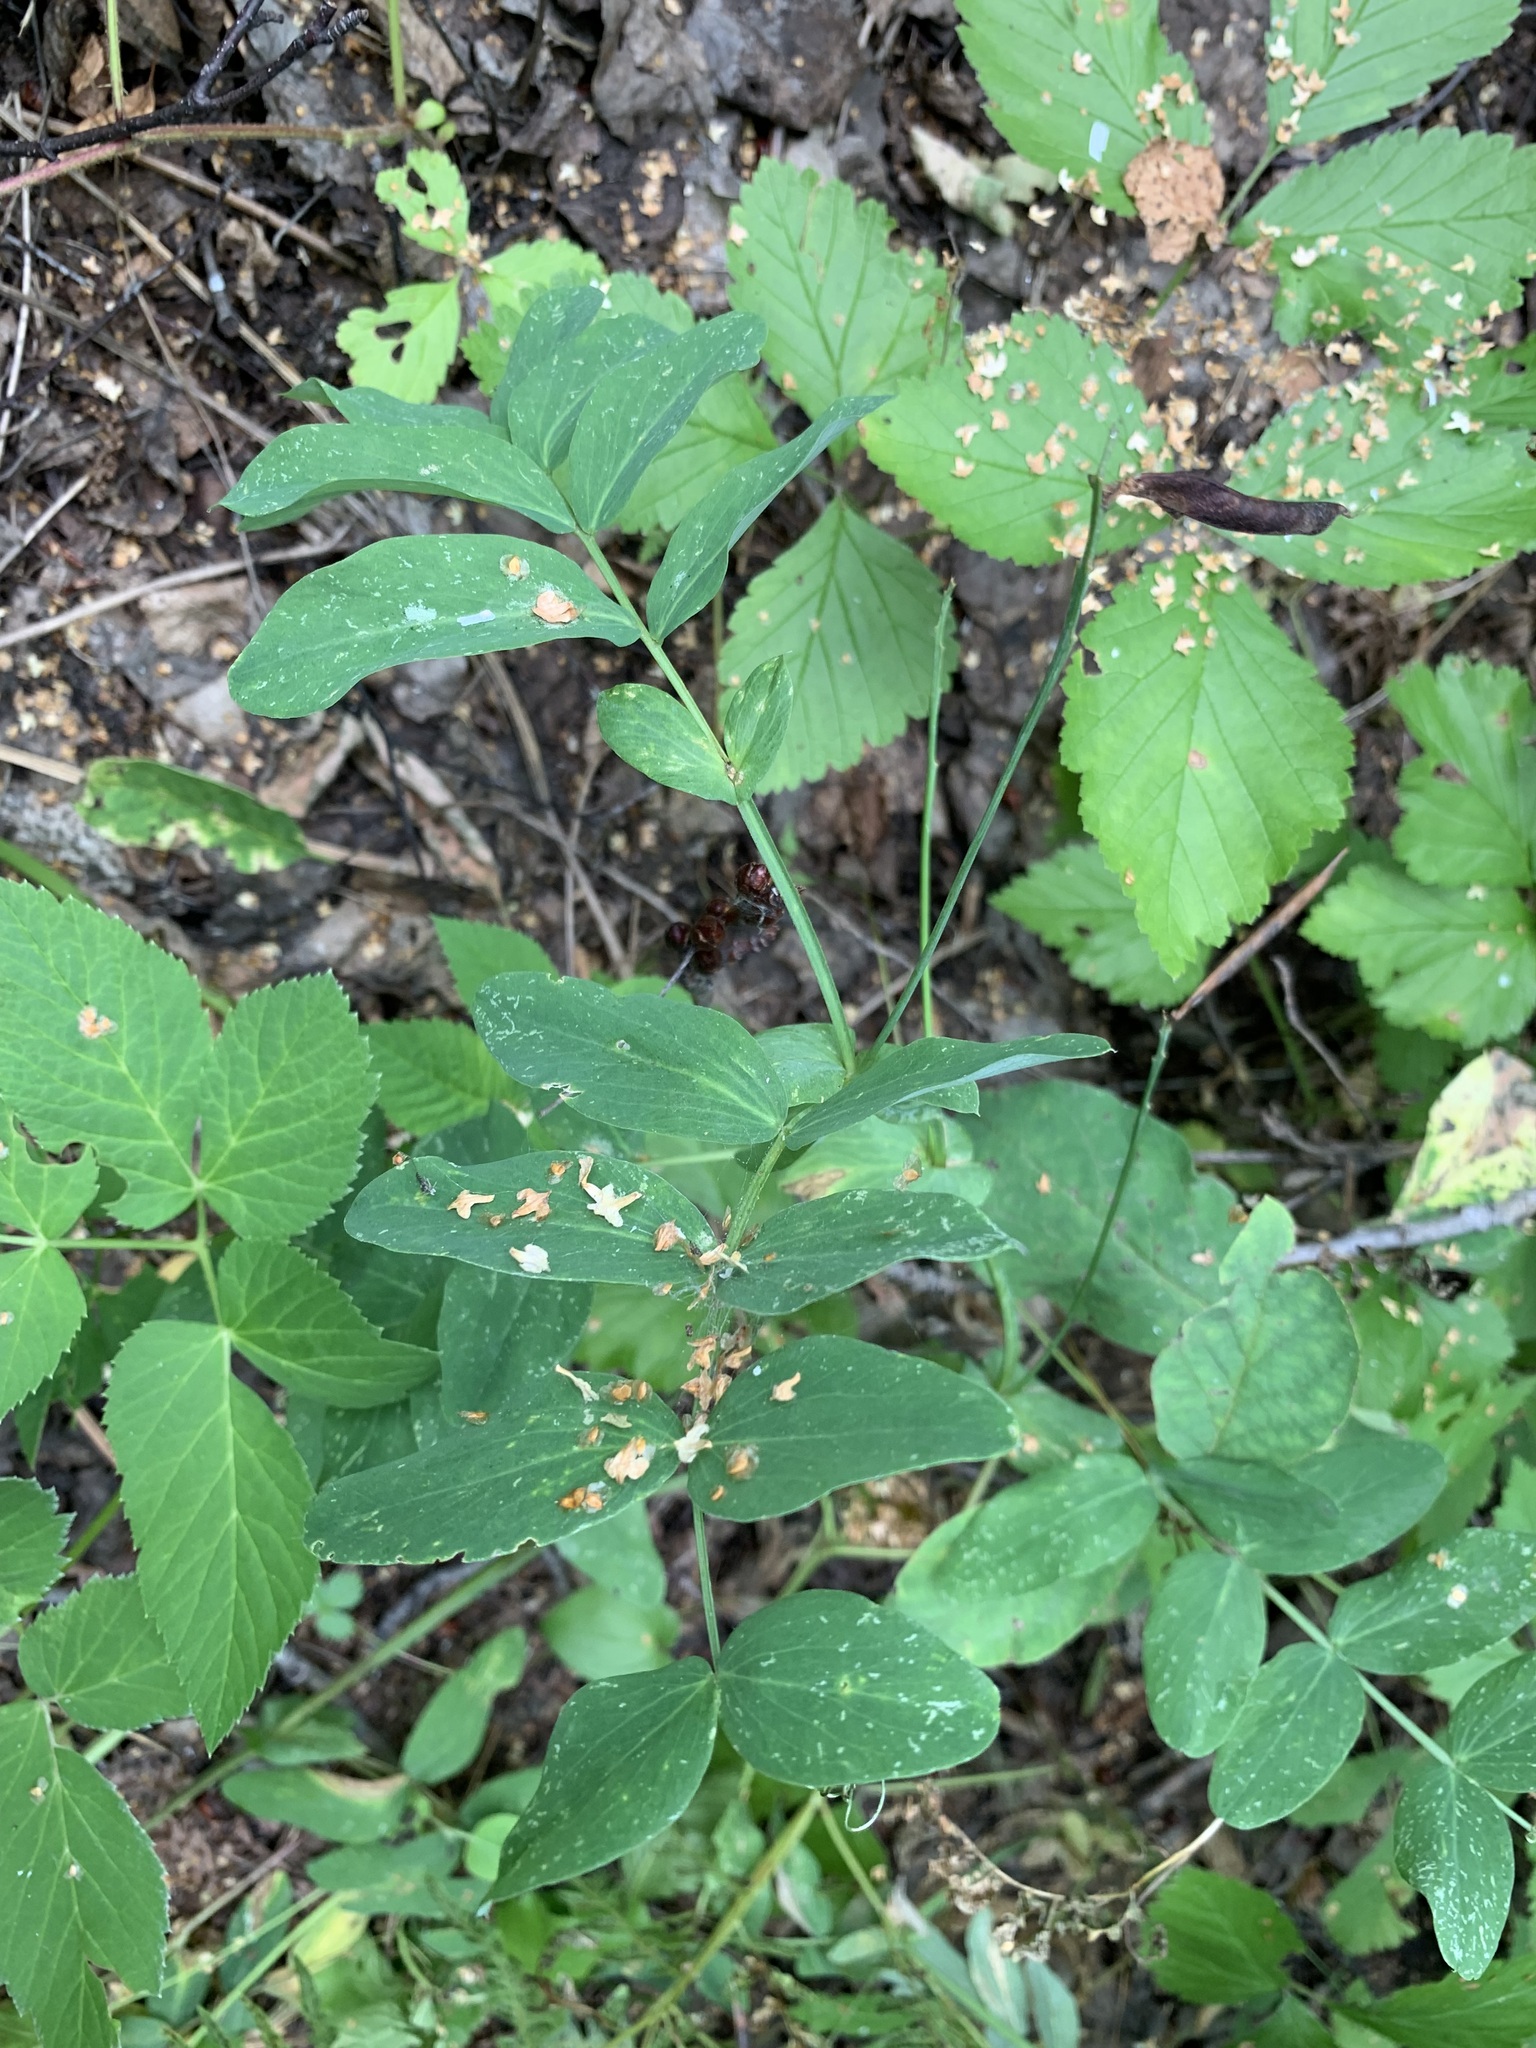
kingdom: Plantae
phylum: Tracheophyta
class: Magnoliopsida
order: Fabales
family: Fabaceae
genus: Lathyrus
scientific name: Lathyrus pisiformis
